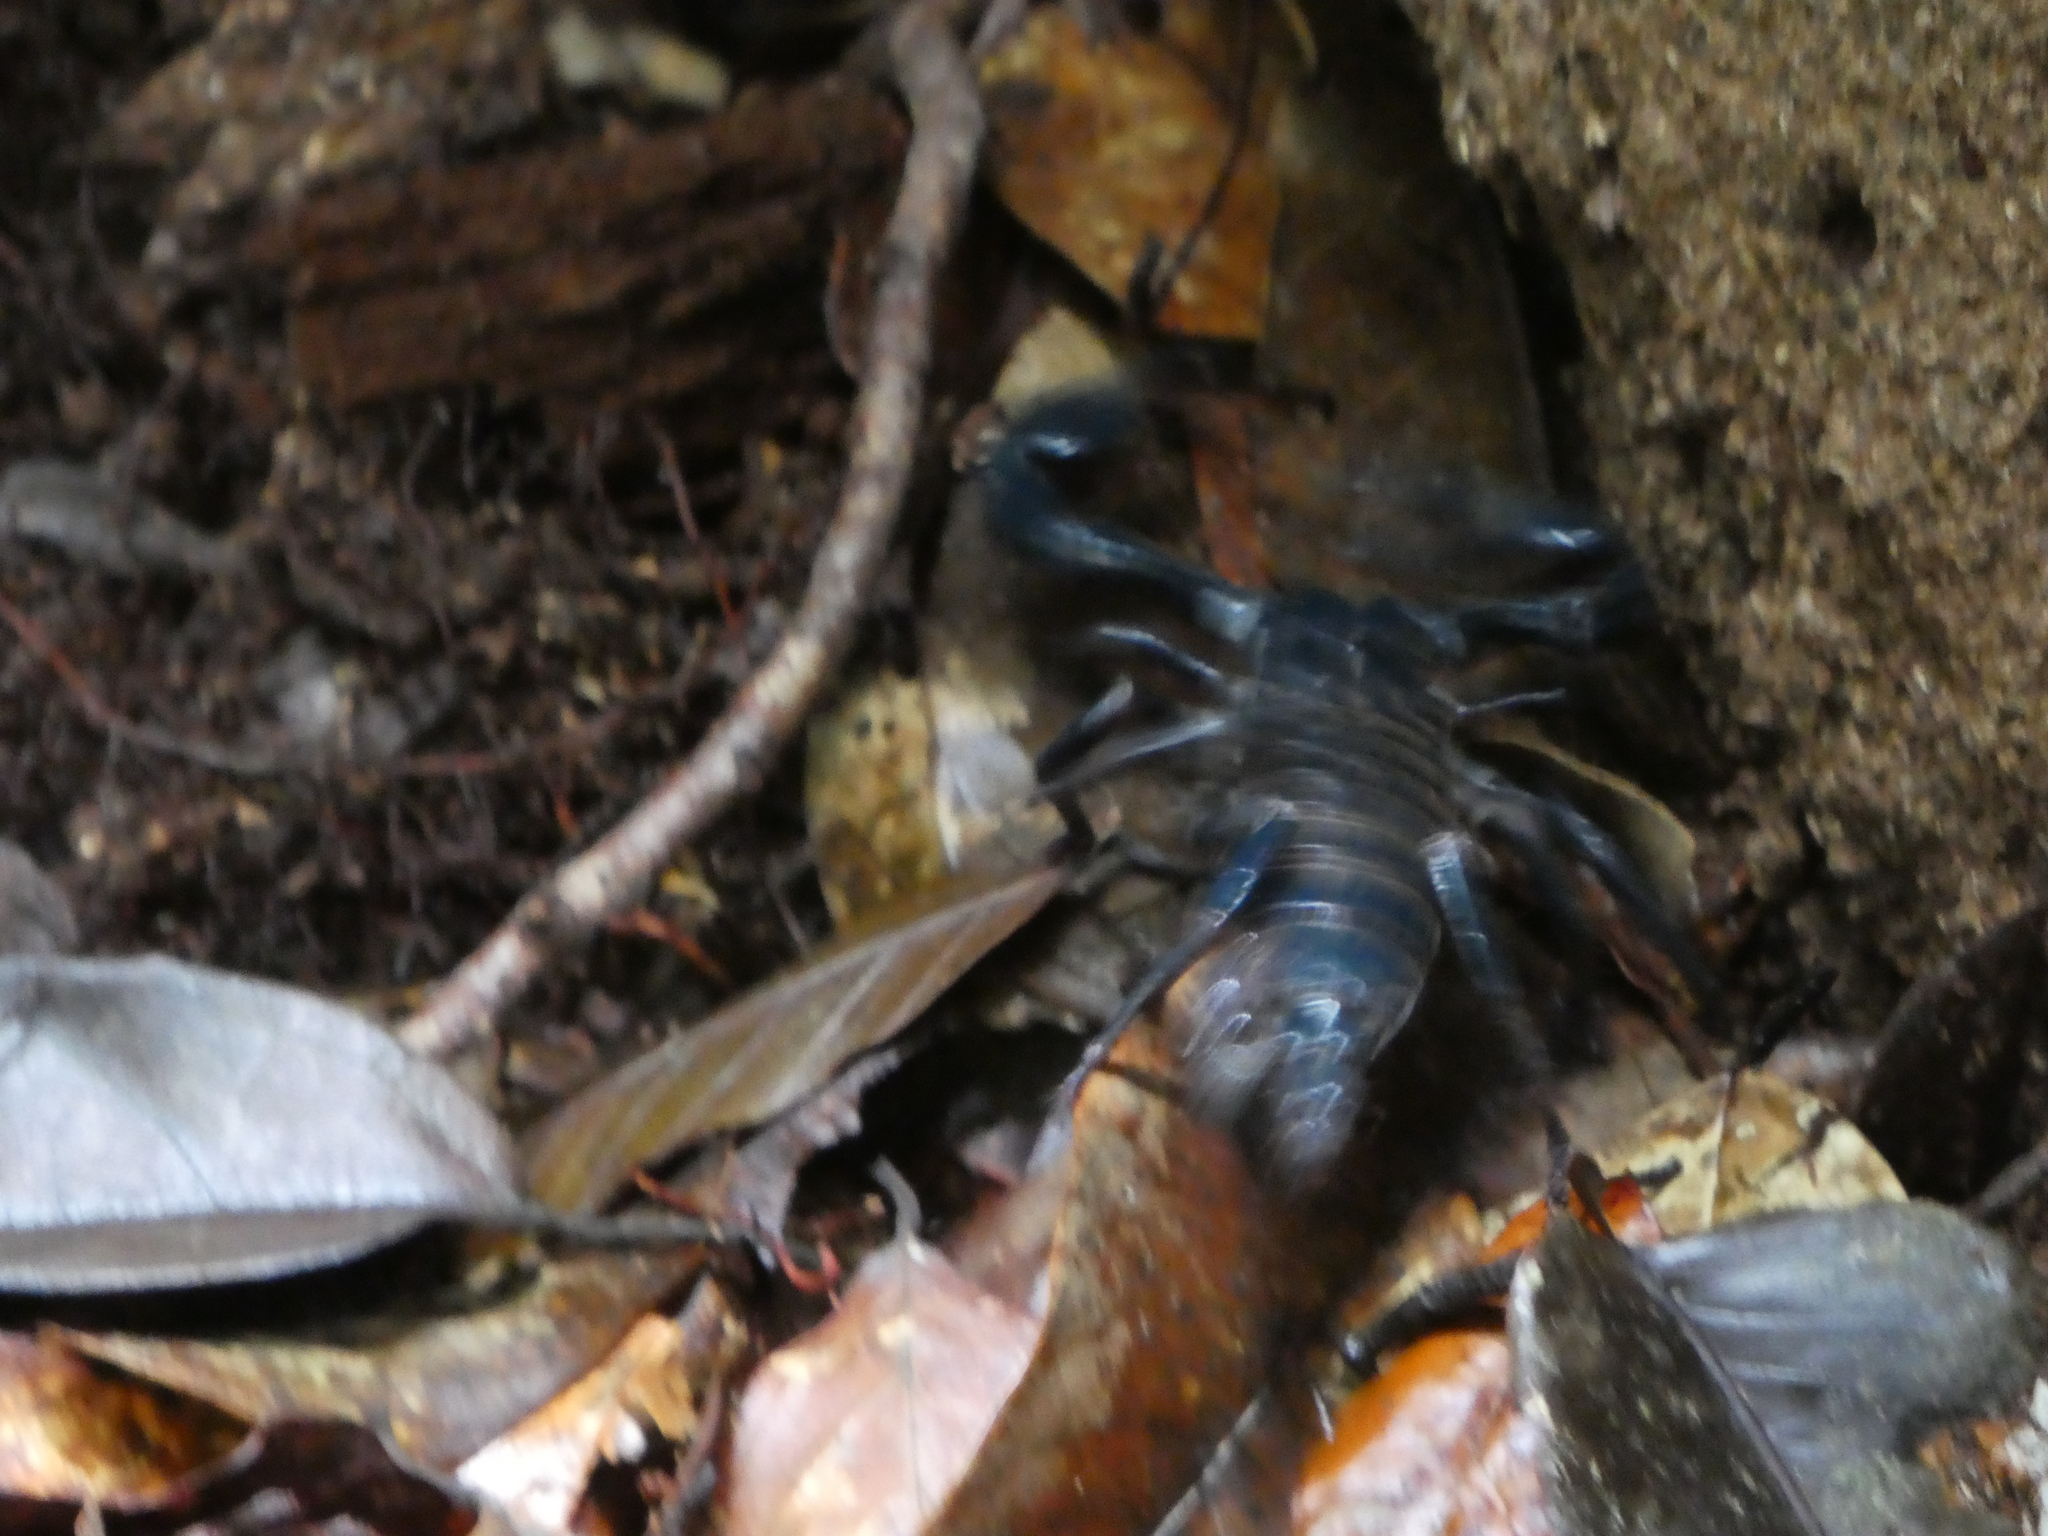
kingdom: Animalia
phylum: Arthropoda
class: Arachnida
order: Scorpiones
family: Scorpionidae
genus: Heterometrus
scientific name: Heterometrus longimanus
